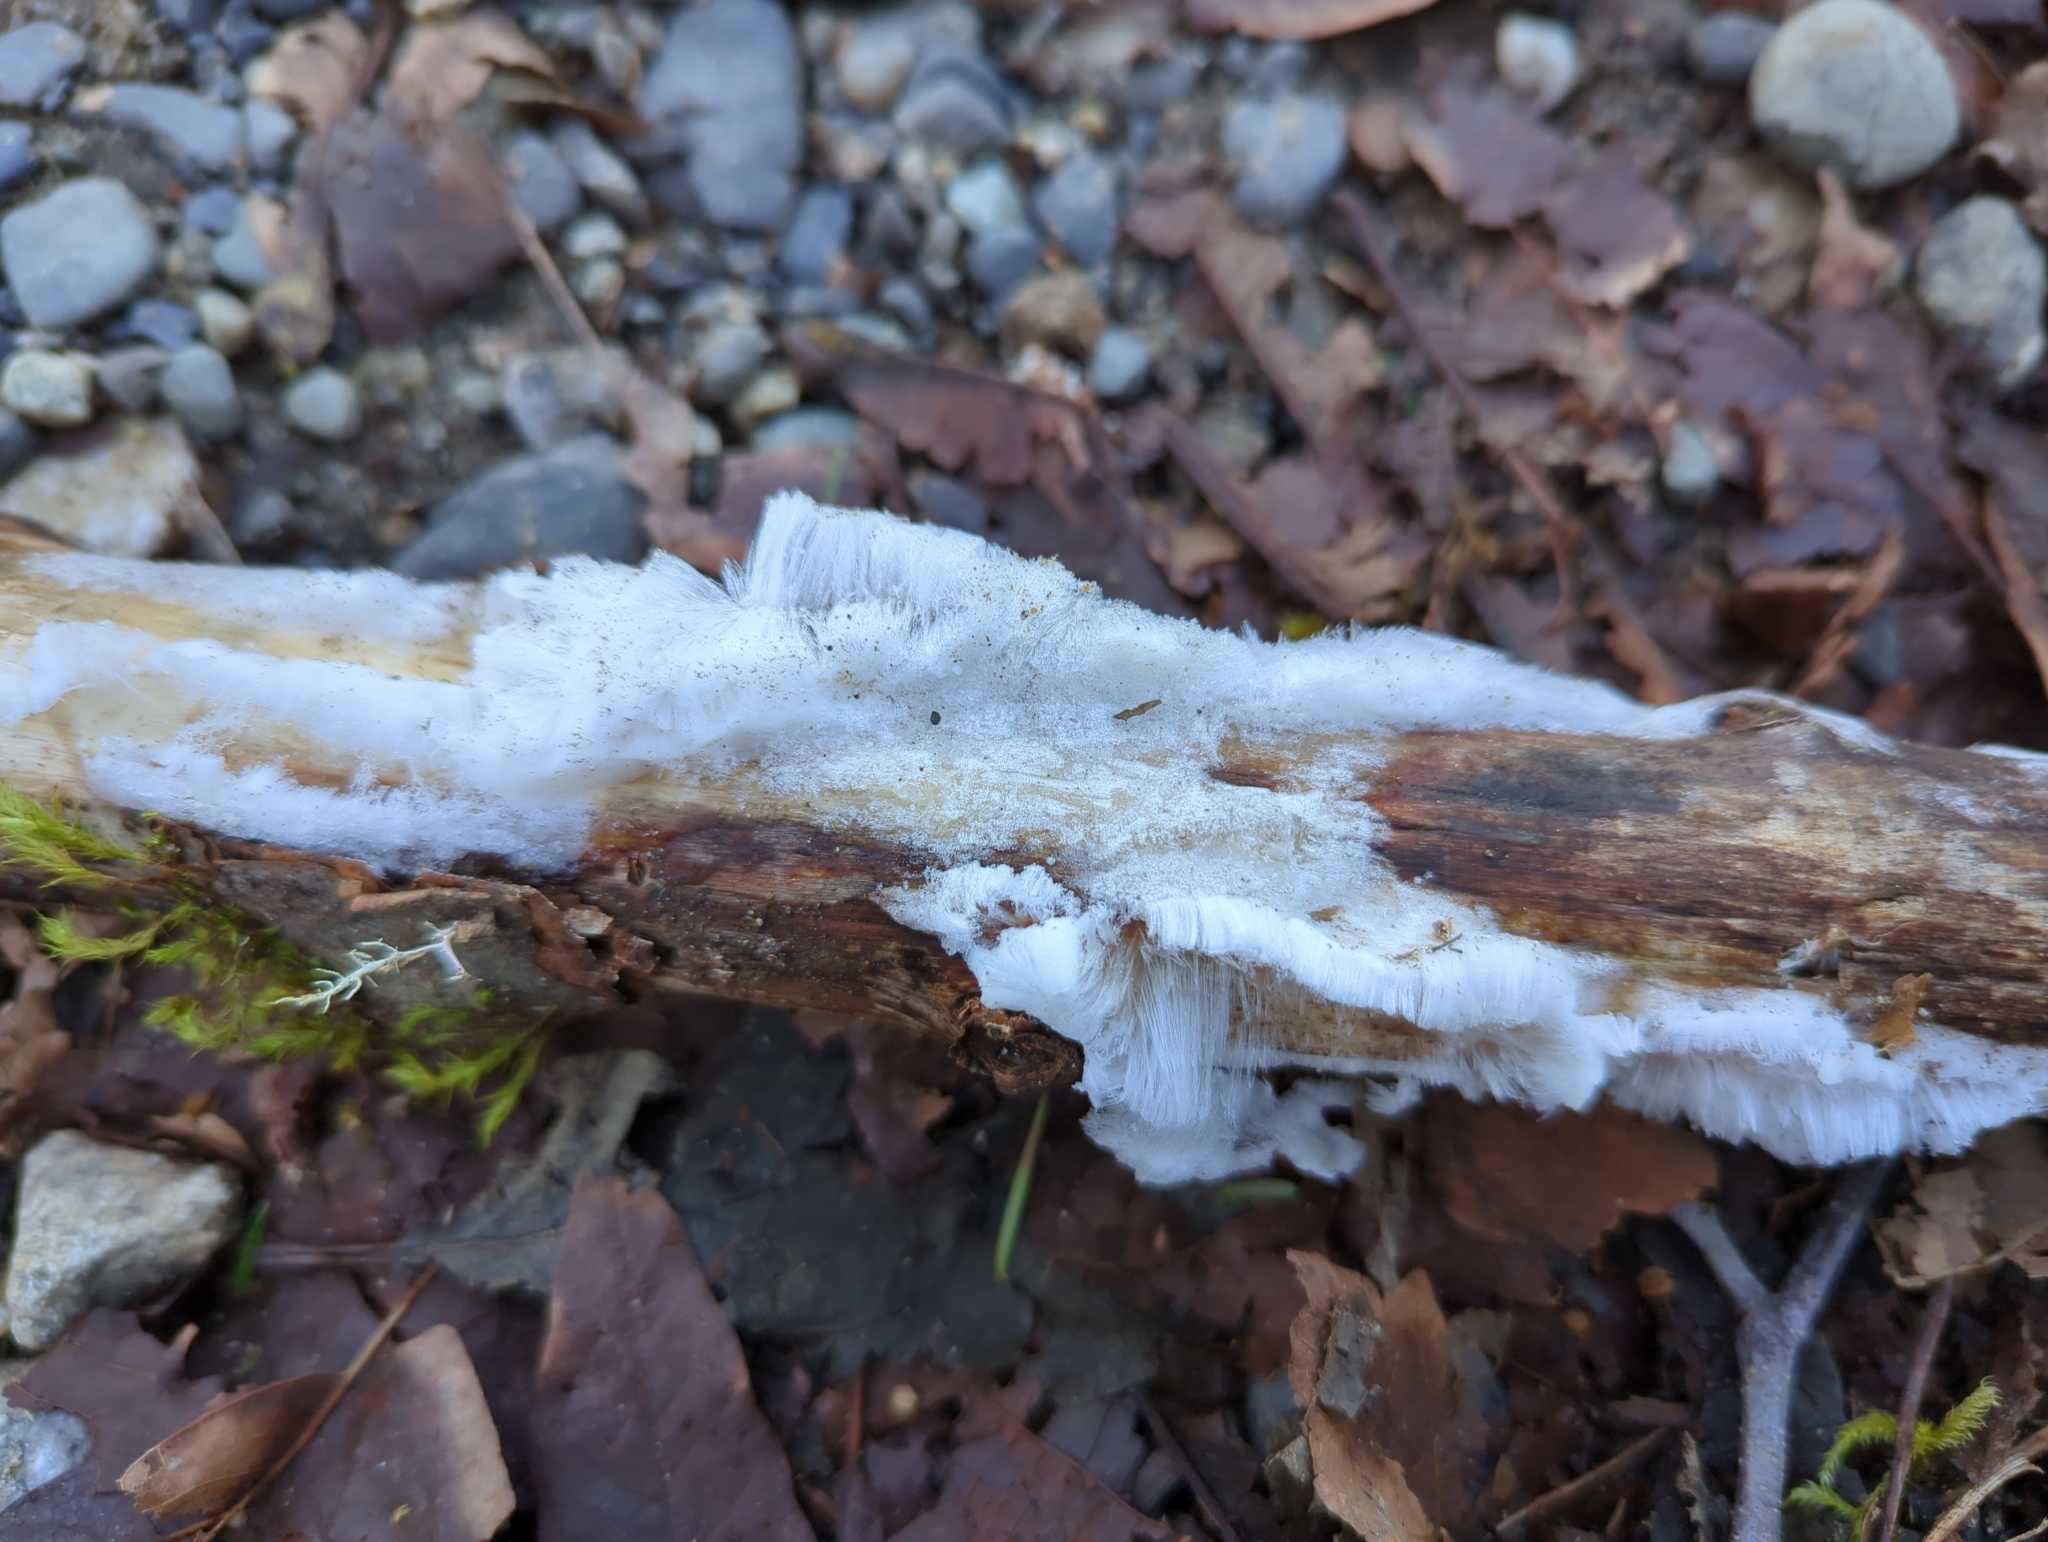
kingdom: Fungi
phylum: Basidiomycota
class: Agaricomycetes
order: Auriculariales
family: Auriculariaceae
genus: Exidiopsis
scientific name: Exidiopsis effusa
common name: Hair ice crust
